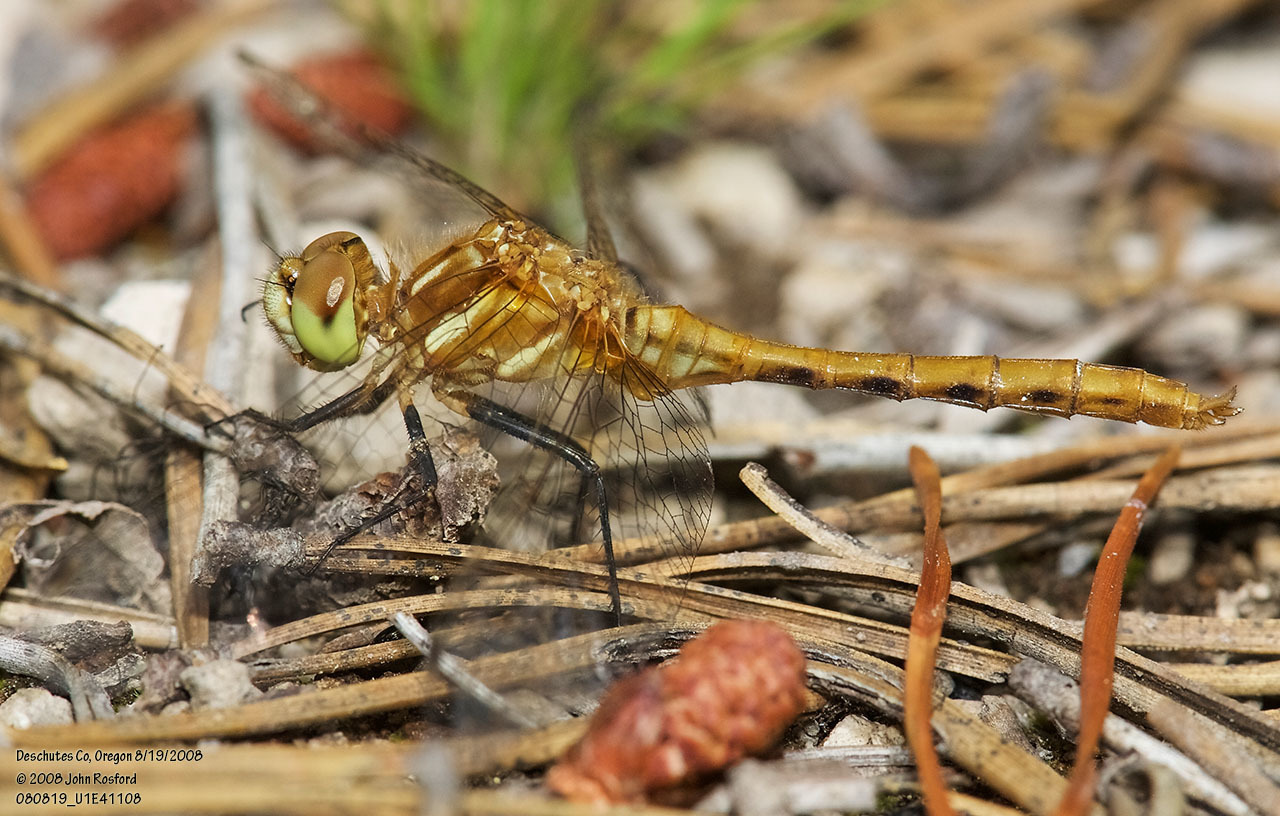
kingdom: Animalia
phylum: Arthropoda
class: Insecta
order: Odonata
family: Libellulidae
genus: Sympetrum
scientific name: Sympetrum pallipes
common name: Striped meadowhawk
